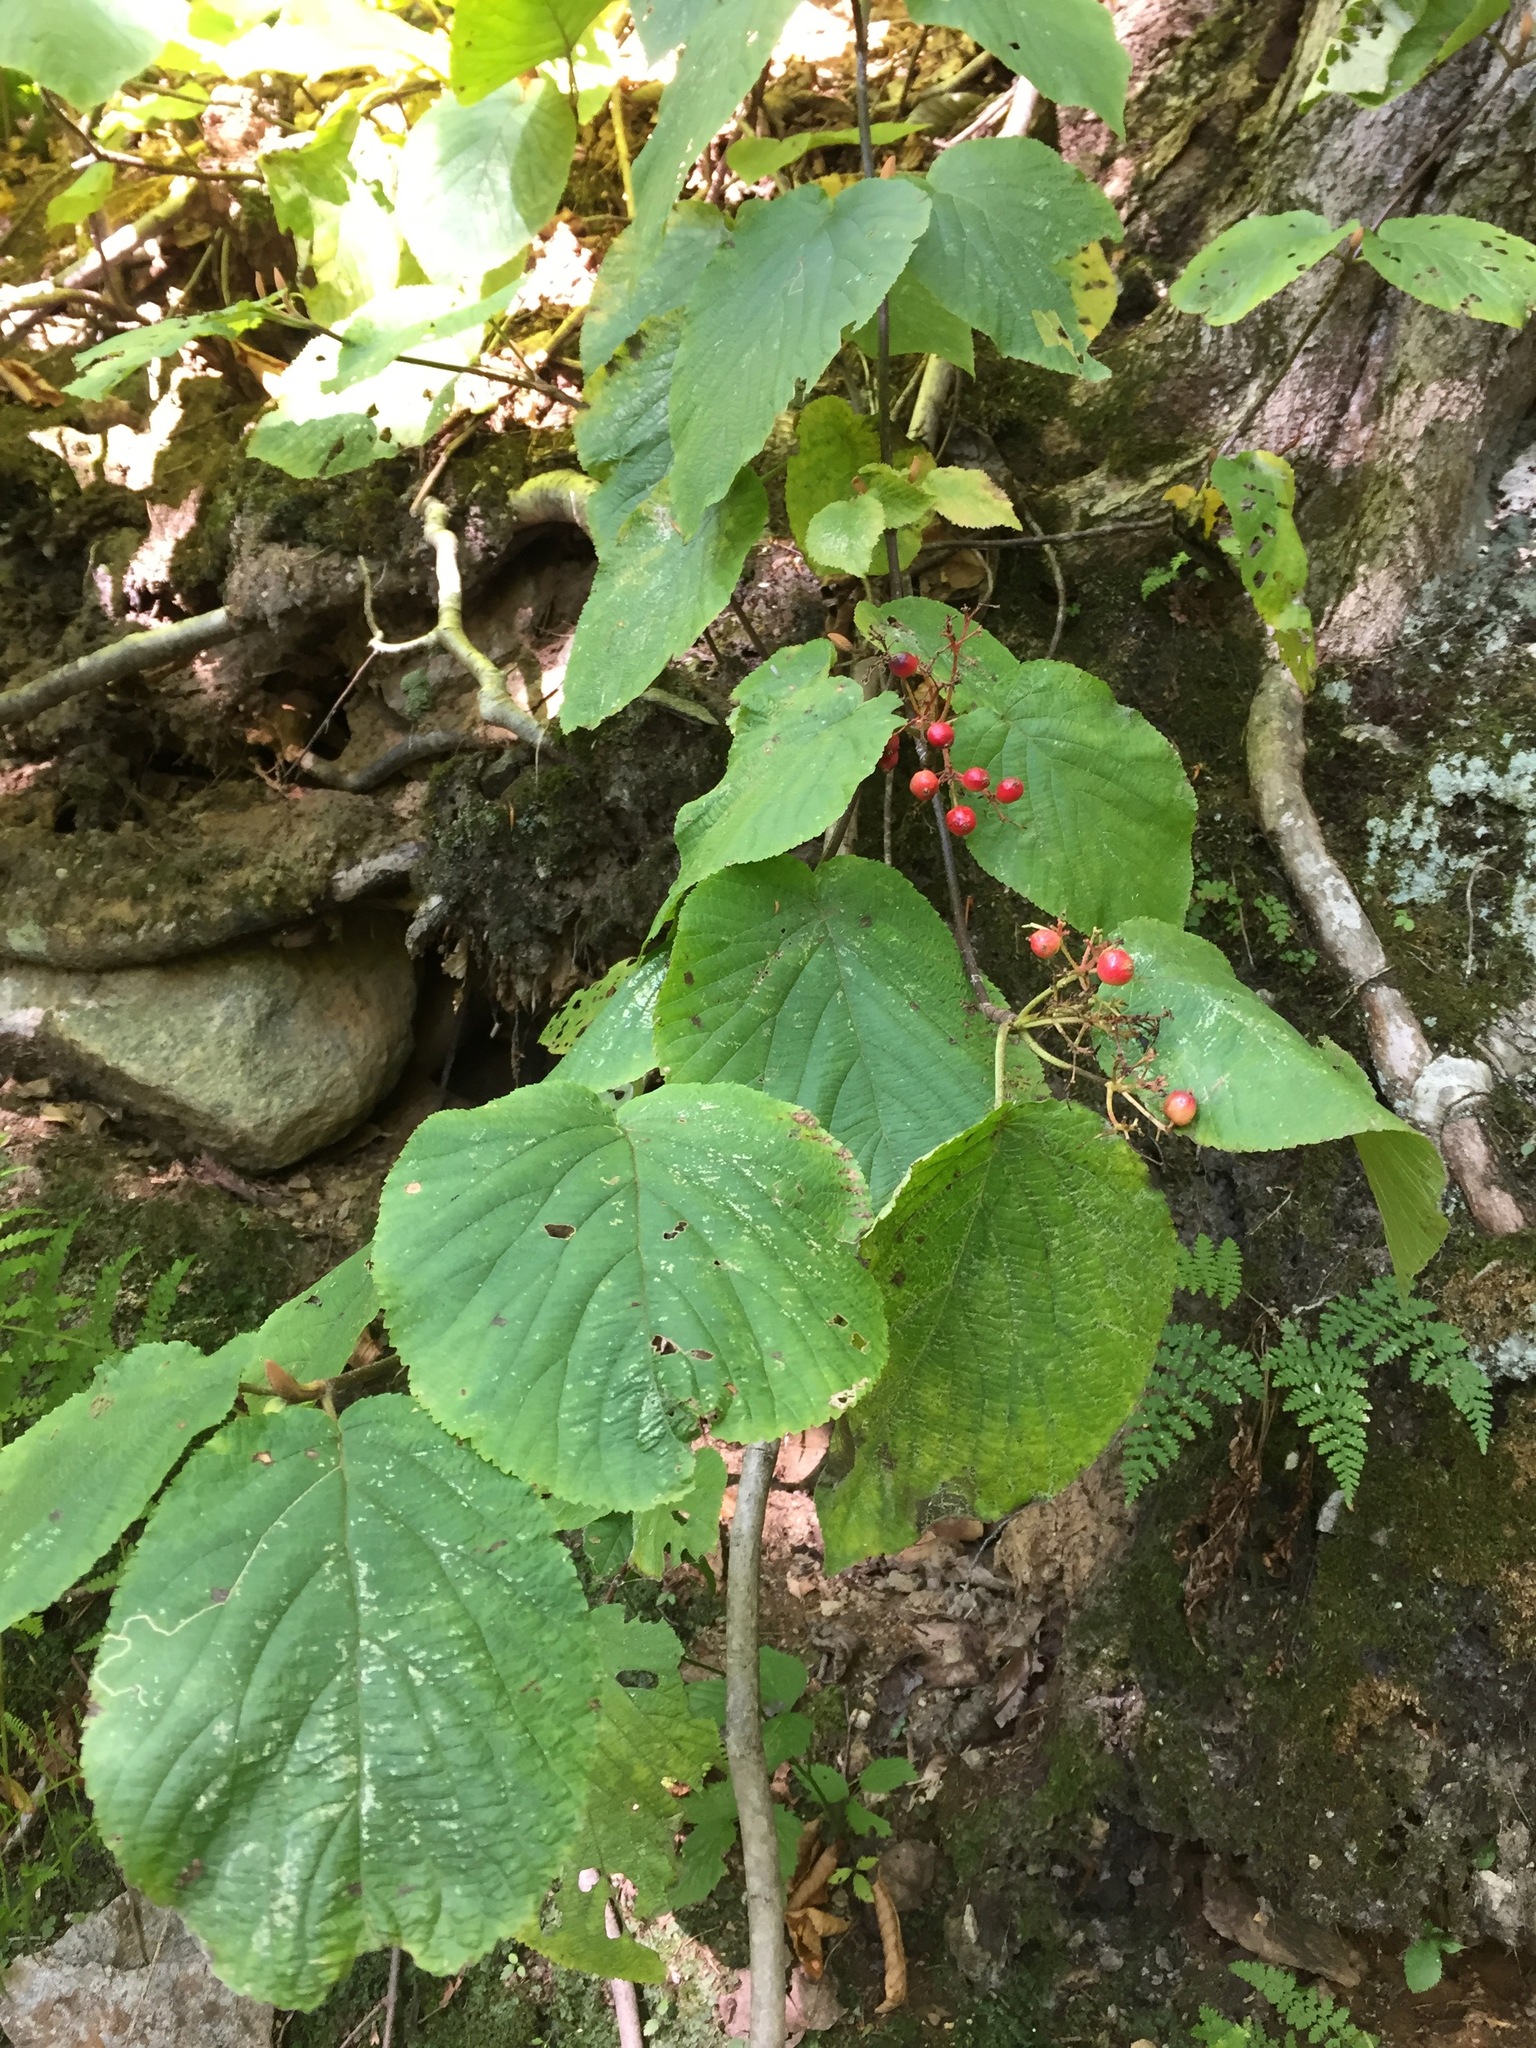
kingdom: Plantae
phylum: Tracheophyta
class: Magnoliopsida
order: Dipsacales
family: Viburnaceae
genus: Viburnum
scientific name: Viburnum lantanoides
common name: Hobblebush
